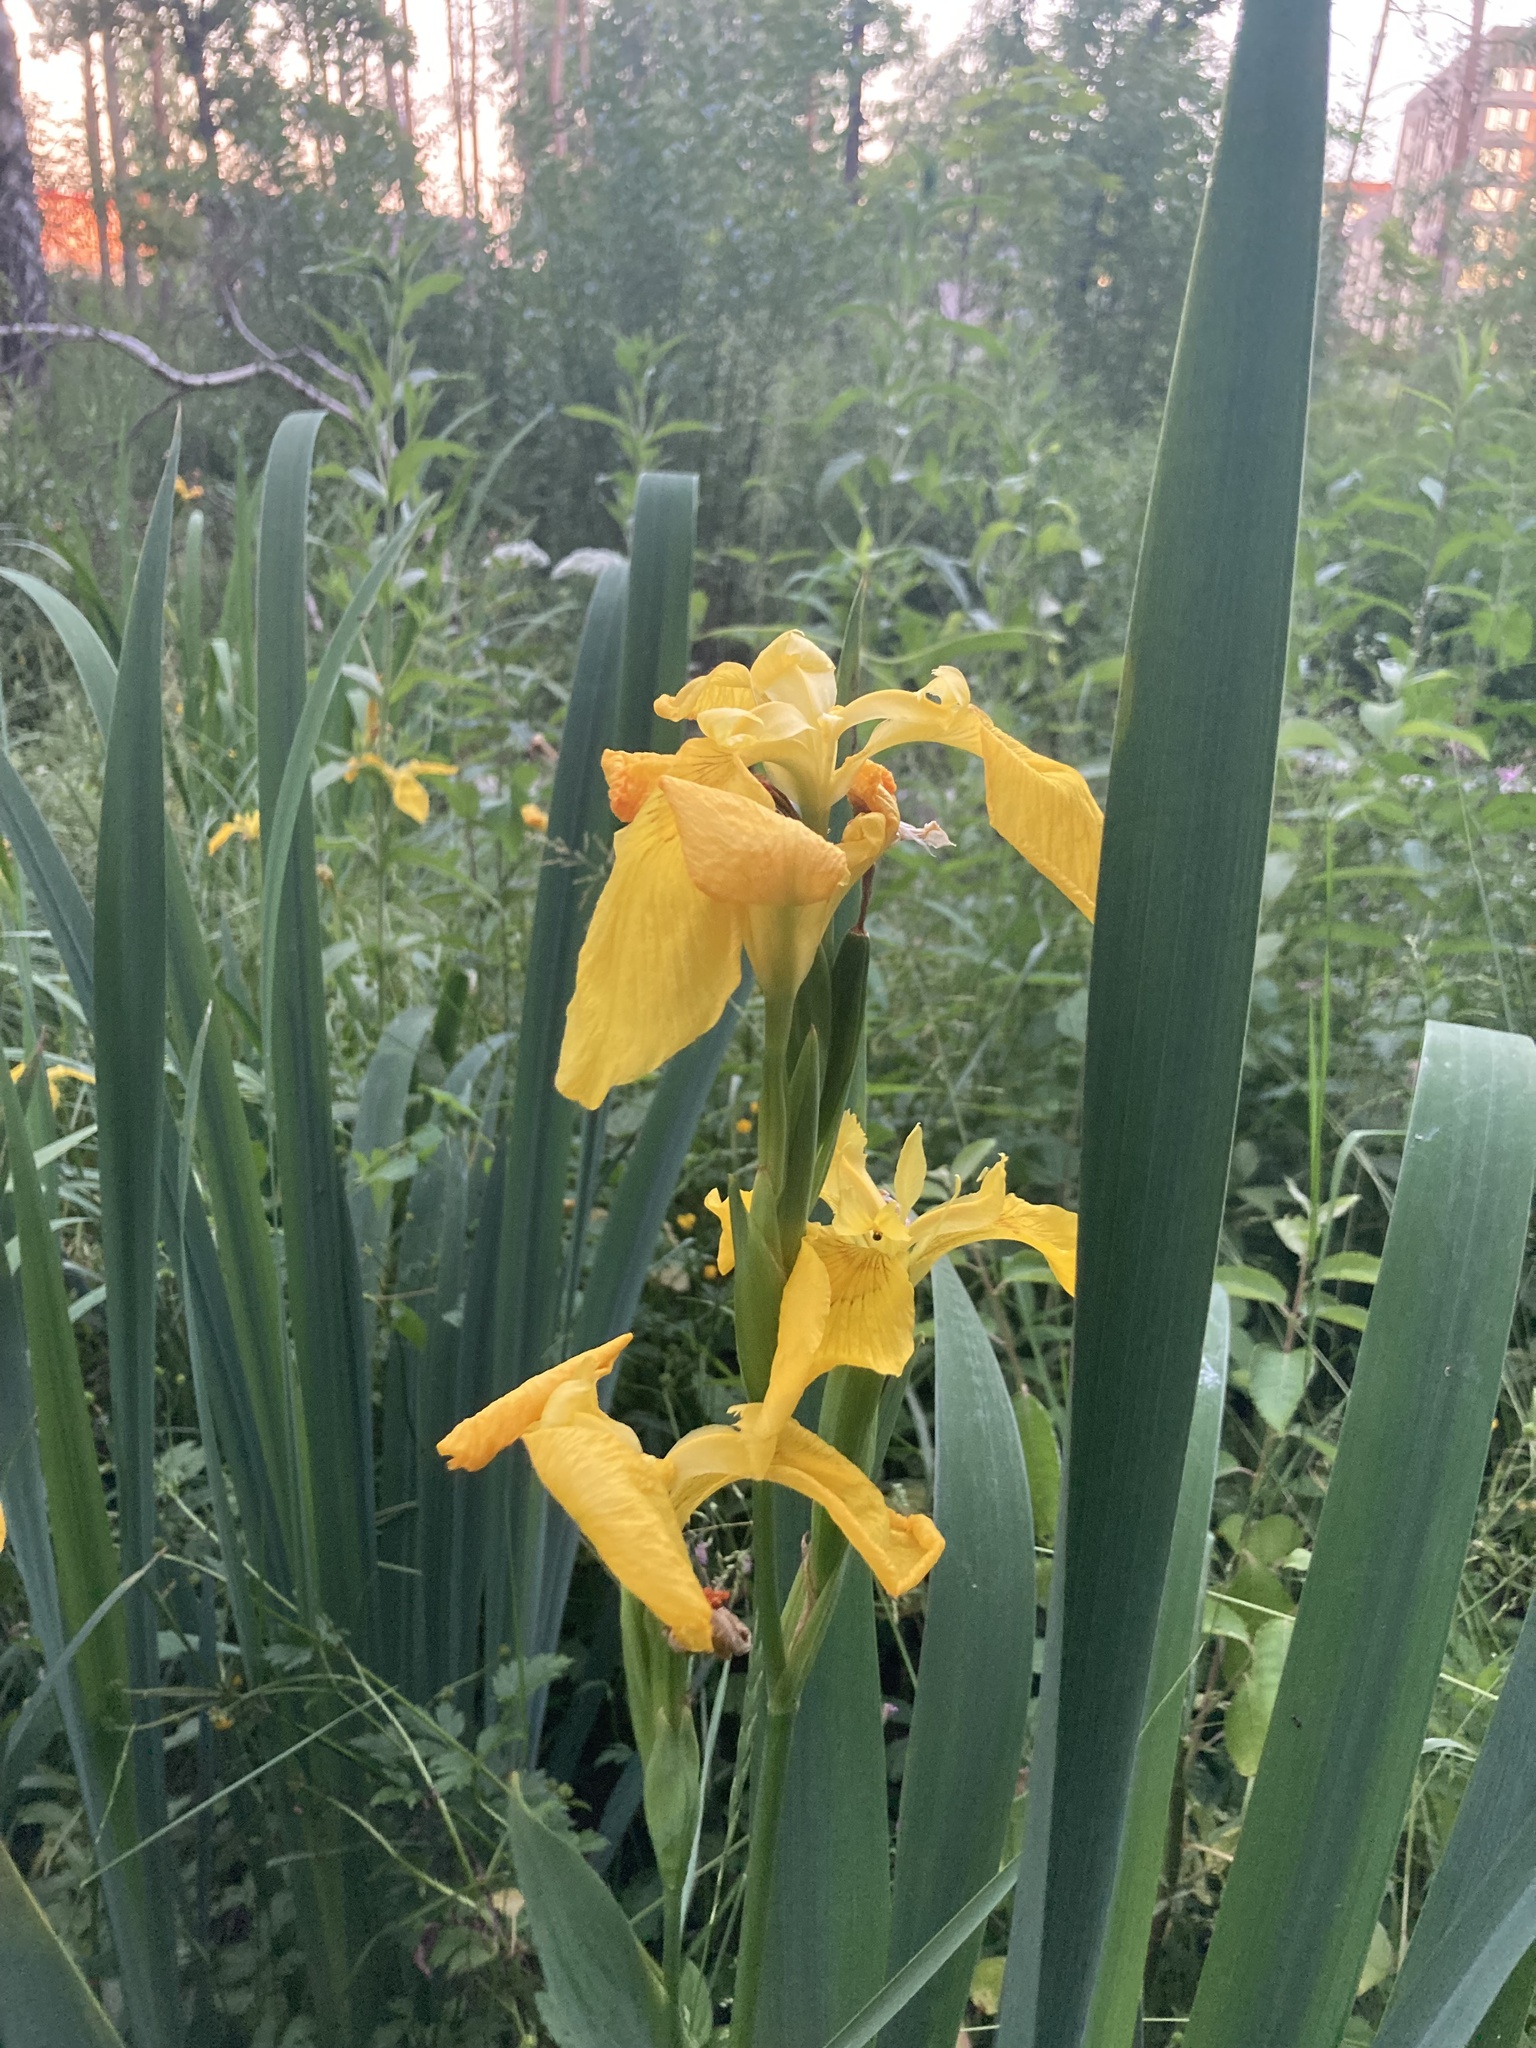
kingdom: Plantae
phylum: Tracheophyta
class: Liliopsida
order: Asparagales
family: Iridaceae
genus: Iris
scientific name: Iris pseudacorus
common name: Yellow flag
